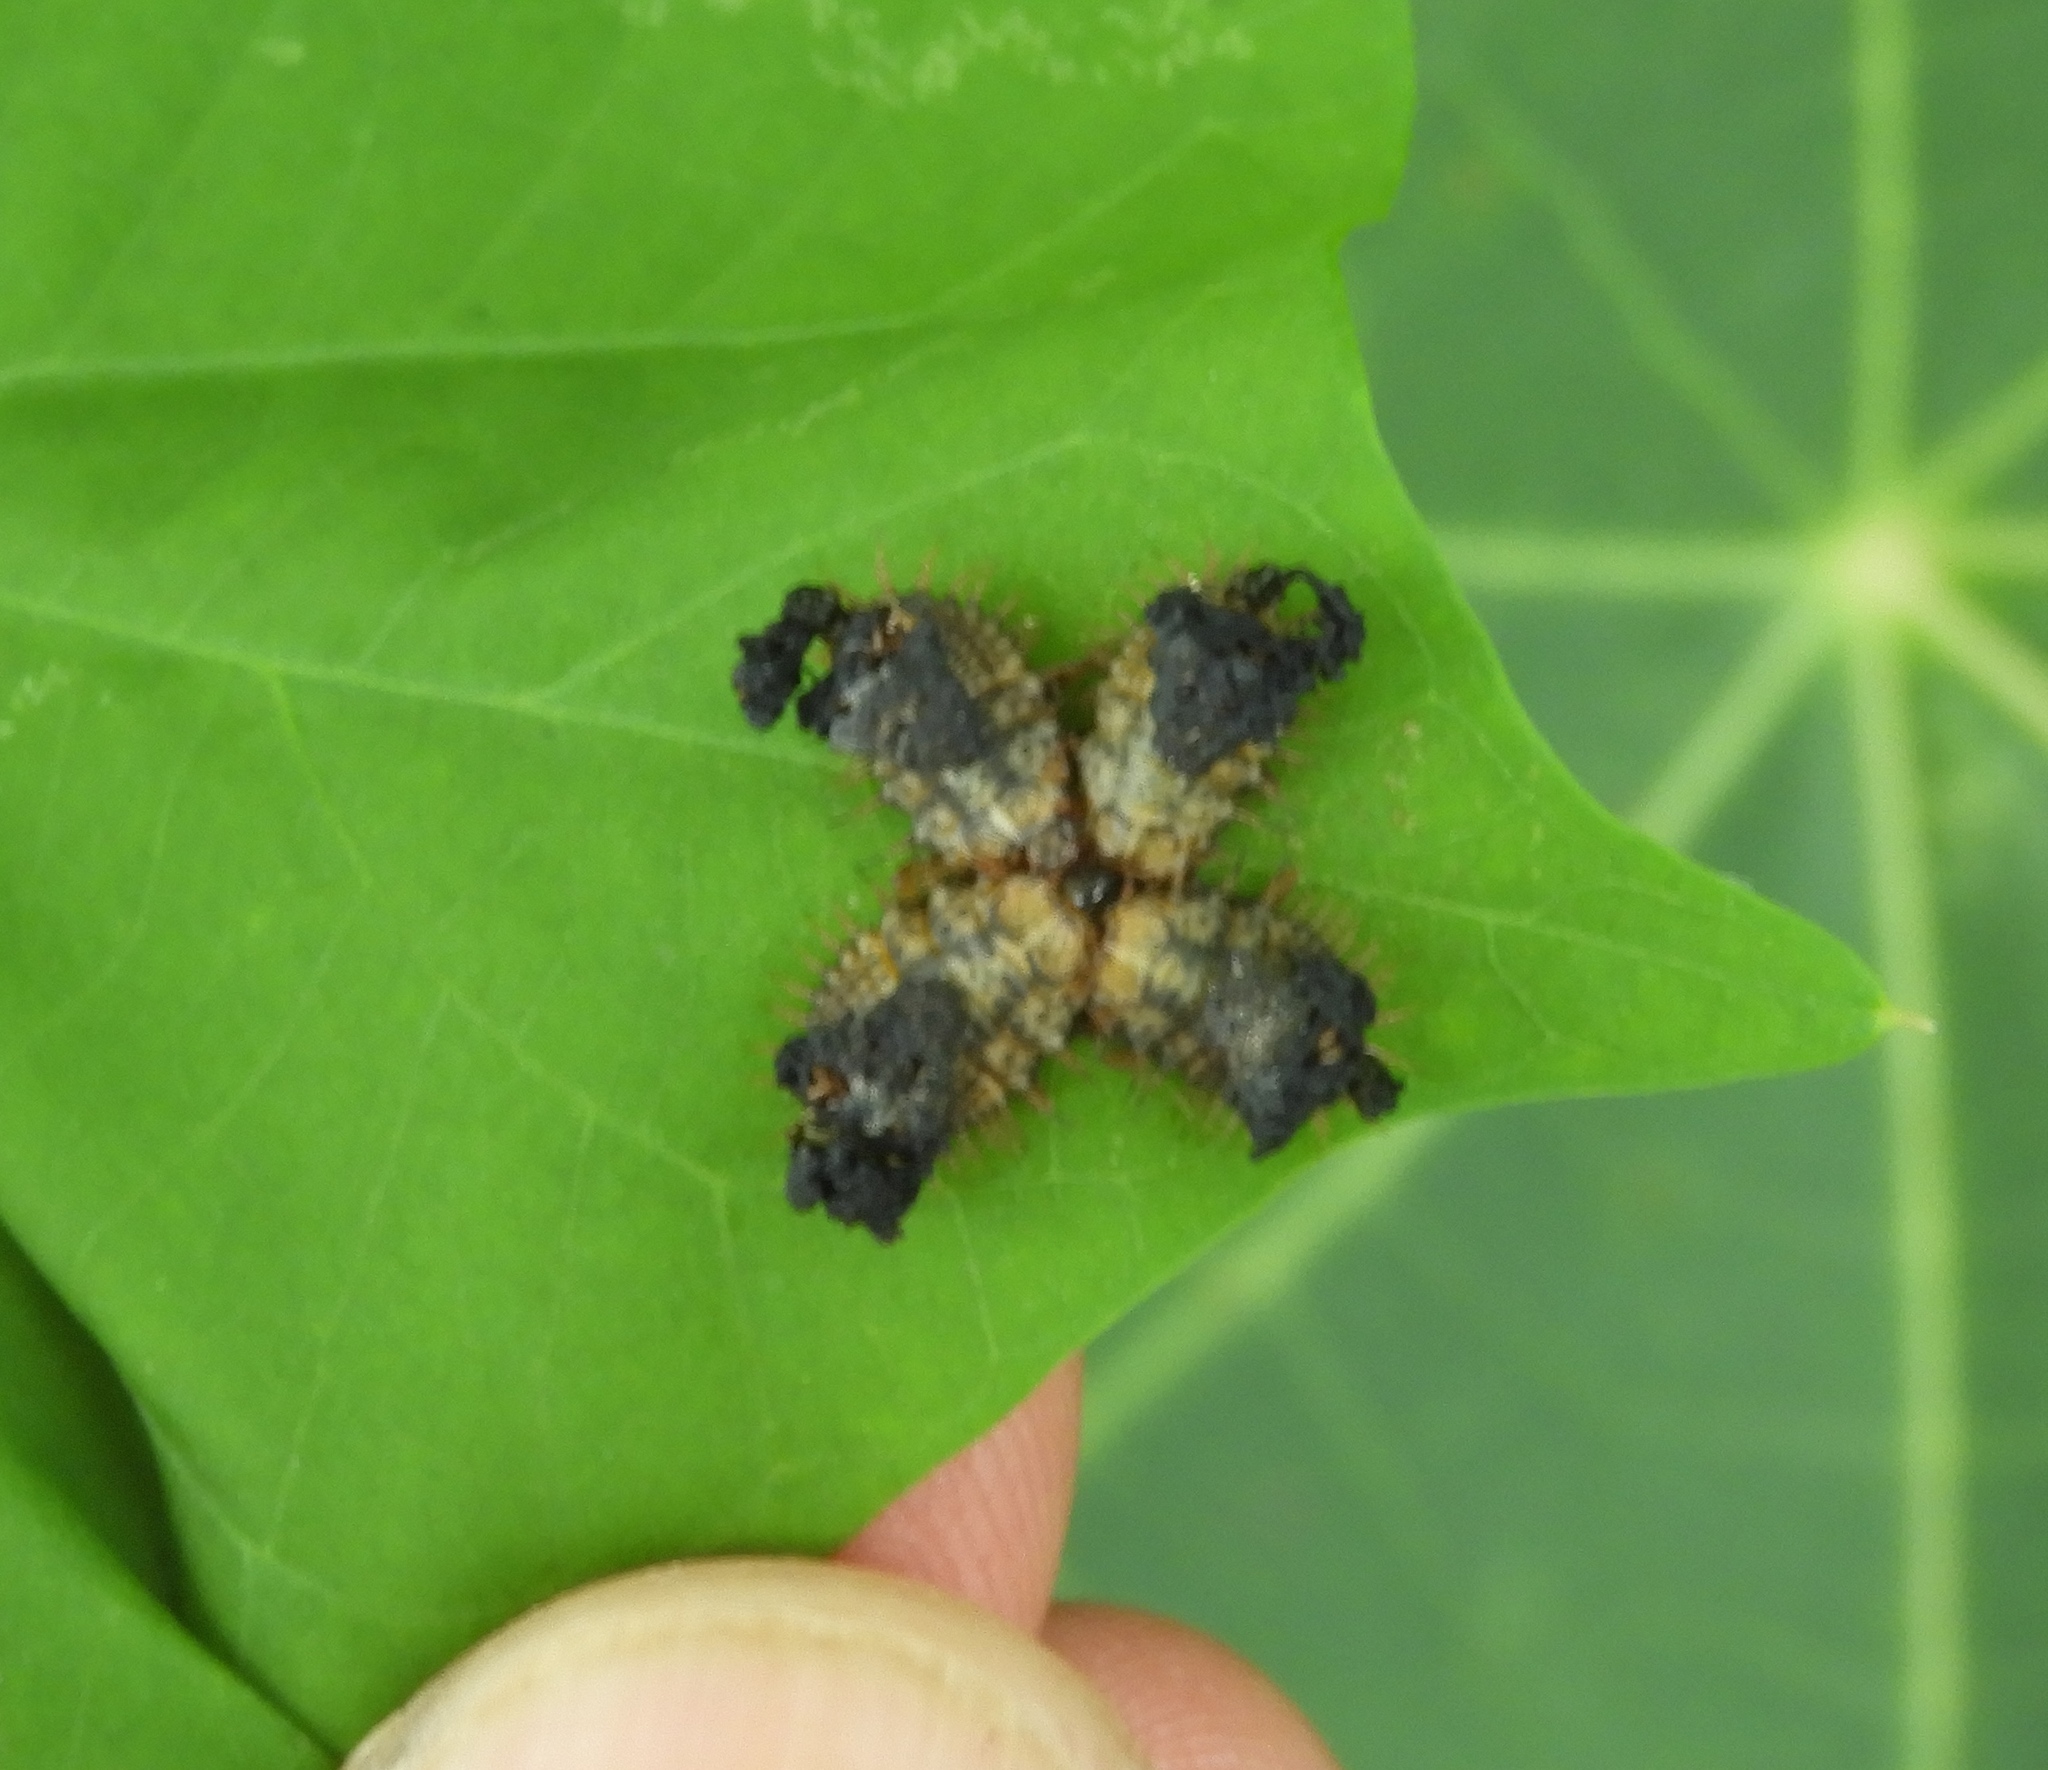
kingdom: Animalia
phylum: Arthropoda
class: Insecta
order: Coleoptera
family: Chrysomelidae
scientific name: Chrysomelidae
